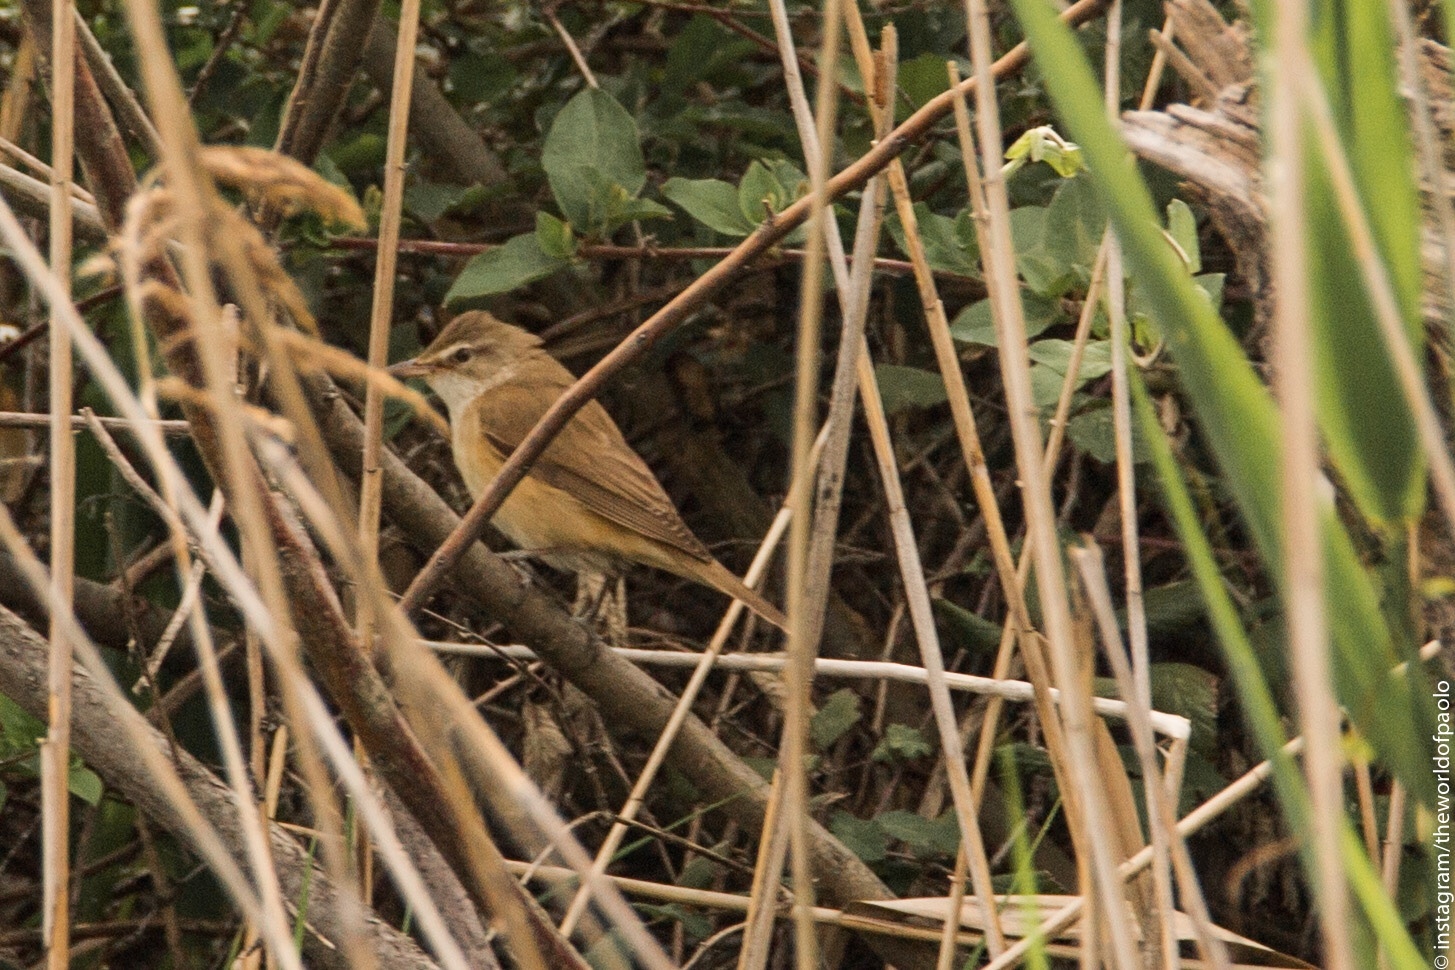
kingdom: Animalia
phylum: Chordata
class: Aves
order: Passeriformes
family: Acrocephalidae
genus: Acrocephalus
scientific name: Acrocephalus arundinaceus
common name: Great reed warbler
